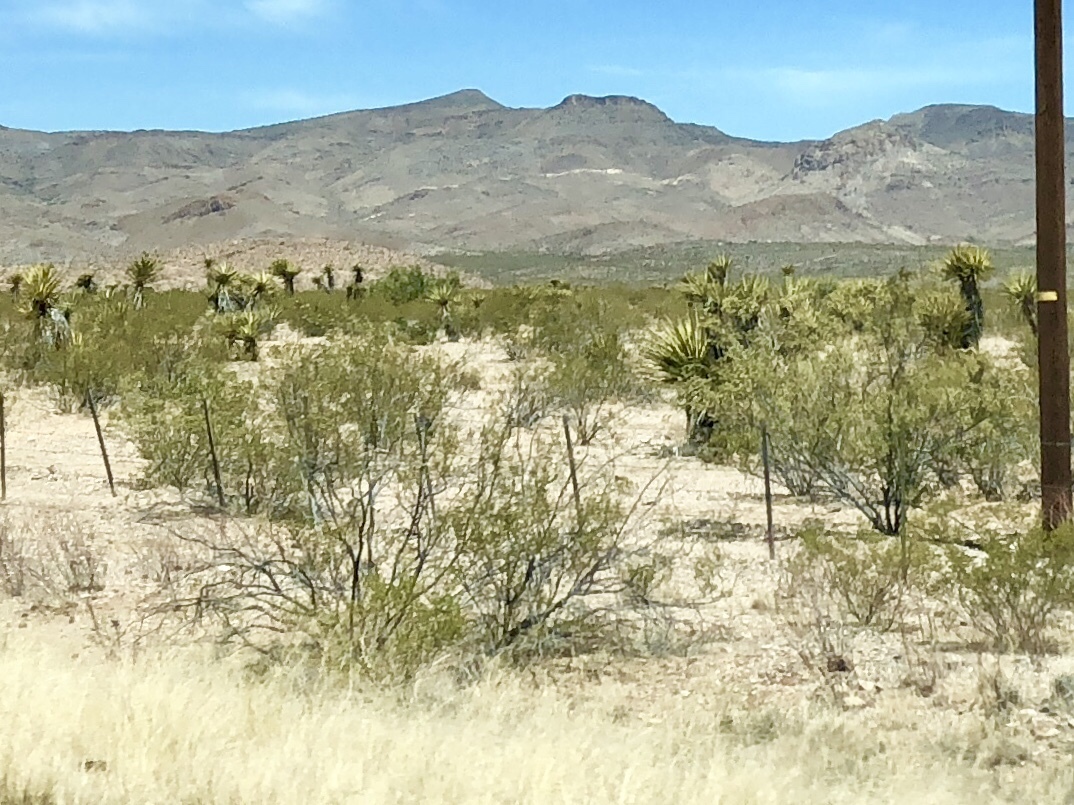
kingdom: Plantae
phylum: Tracheophyta
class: Magnoliopsida
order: Zygophyllales
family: Zygophyllaceae
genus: Larrea
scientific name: Larrea tridentata
